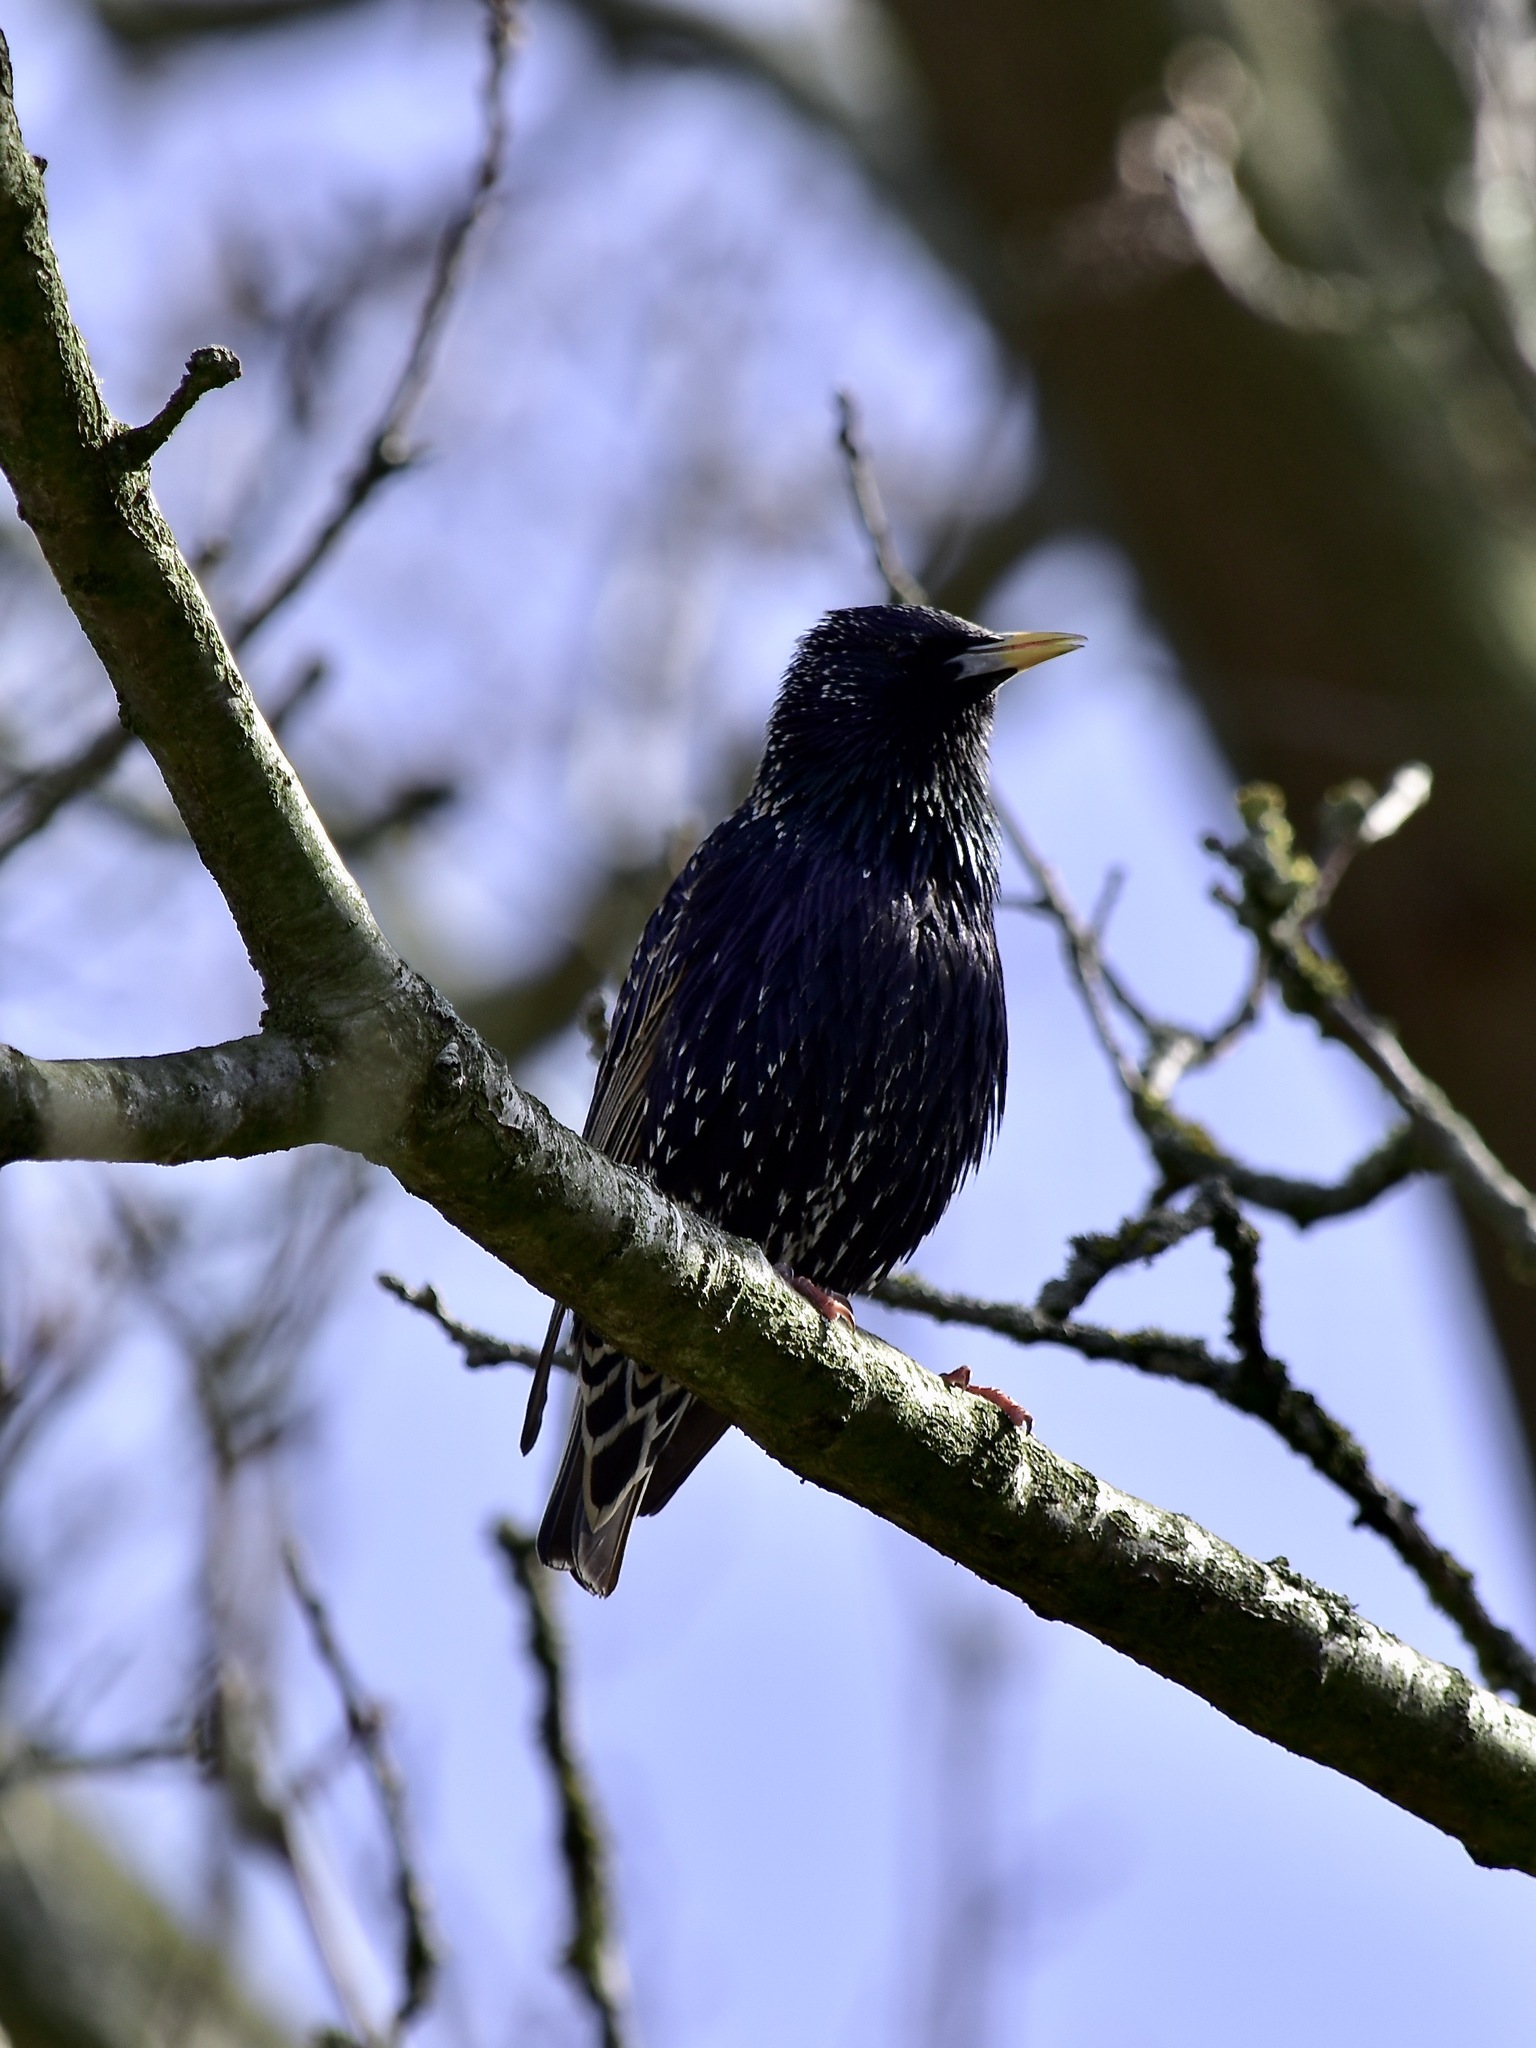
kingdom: Animalia
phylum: Chordata
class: Aves
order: Passeriformes
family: Sturnidae
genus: Sturnus
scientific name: Sturnus vulgaris
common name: Common starling
